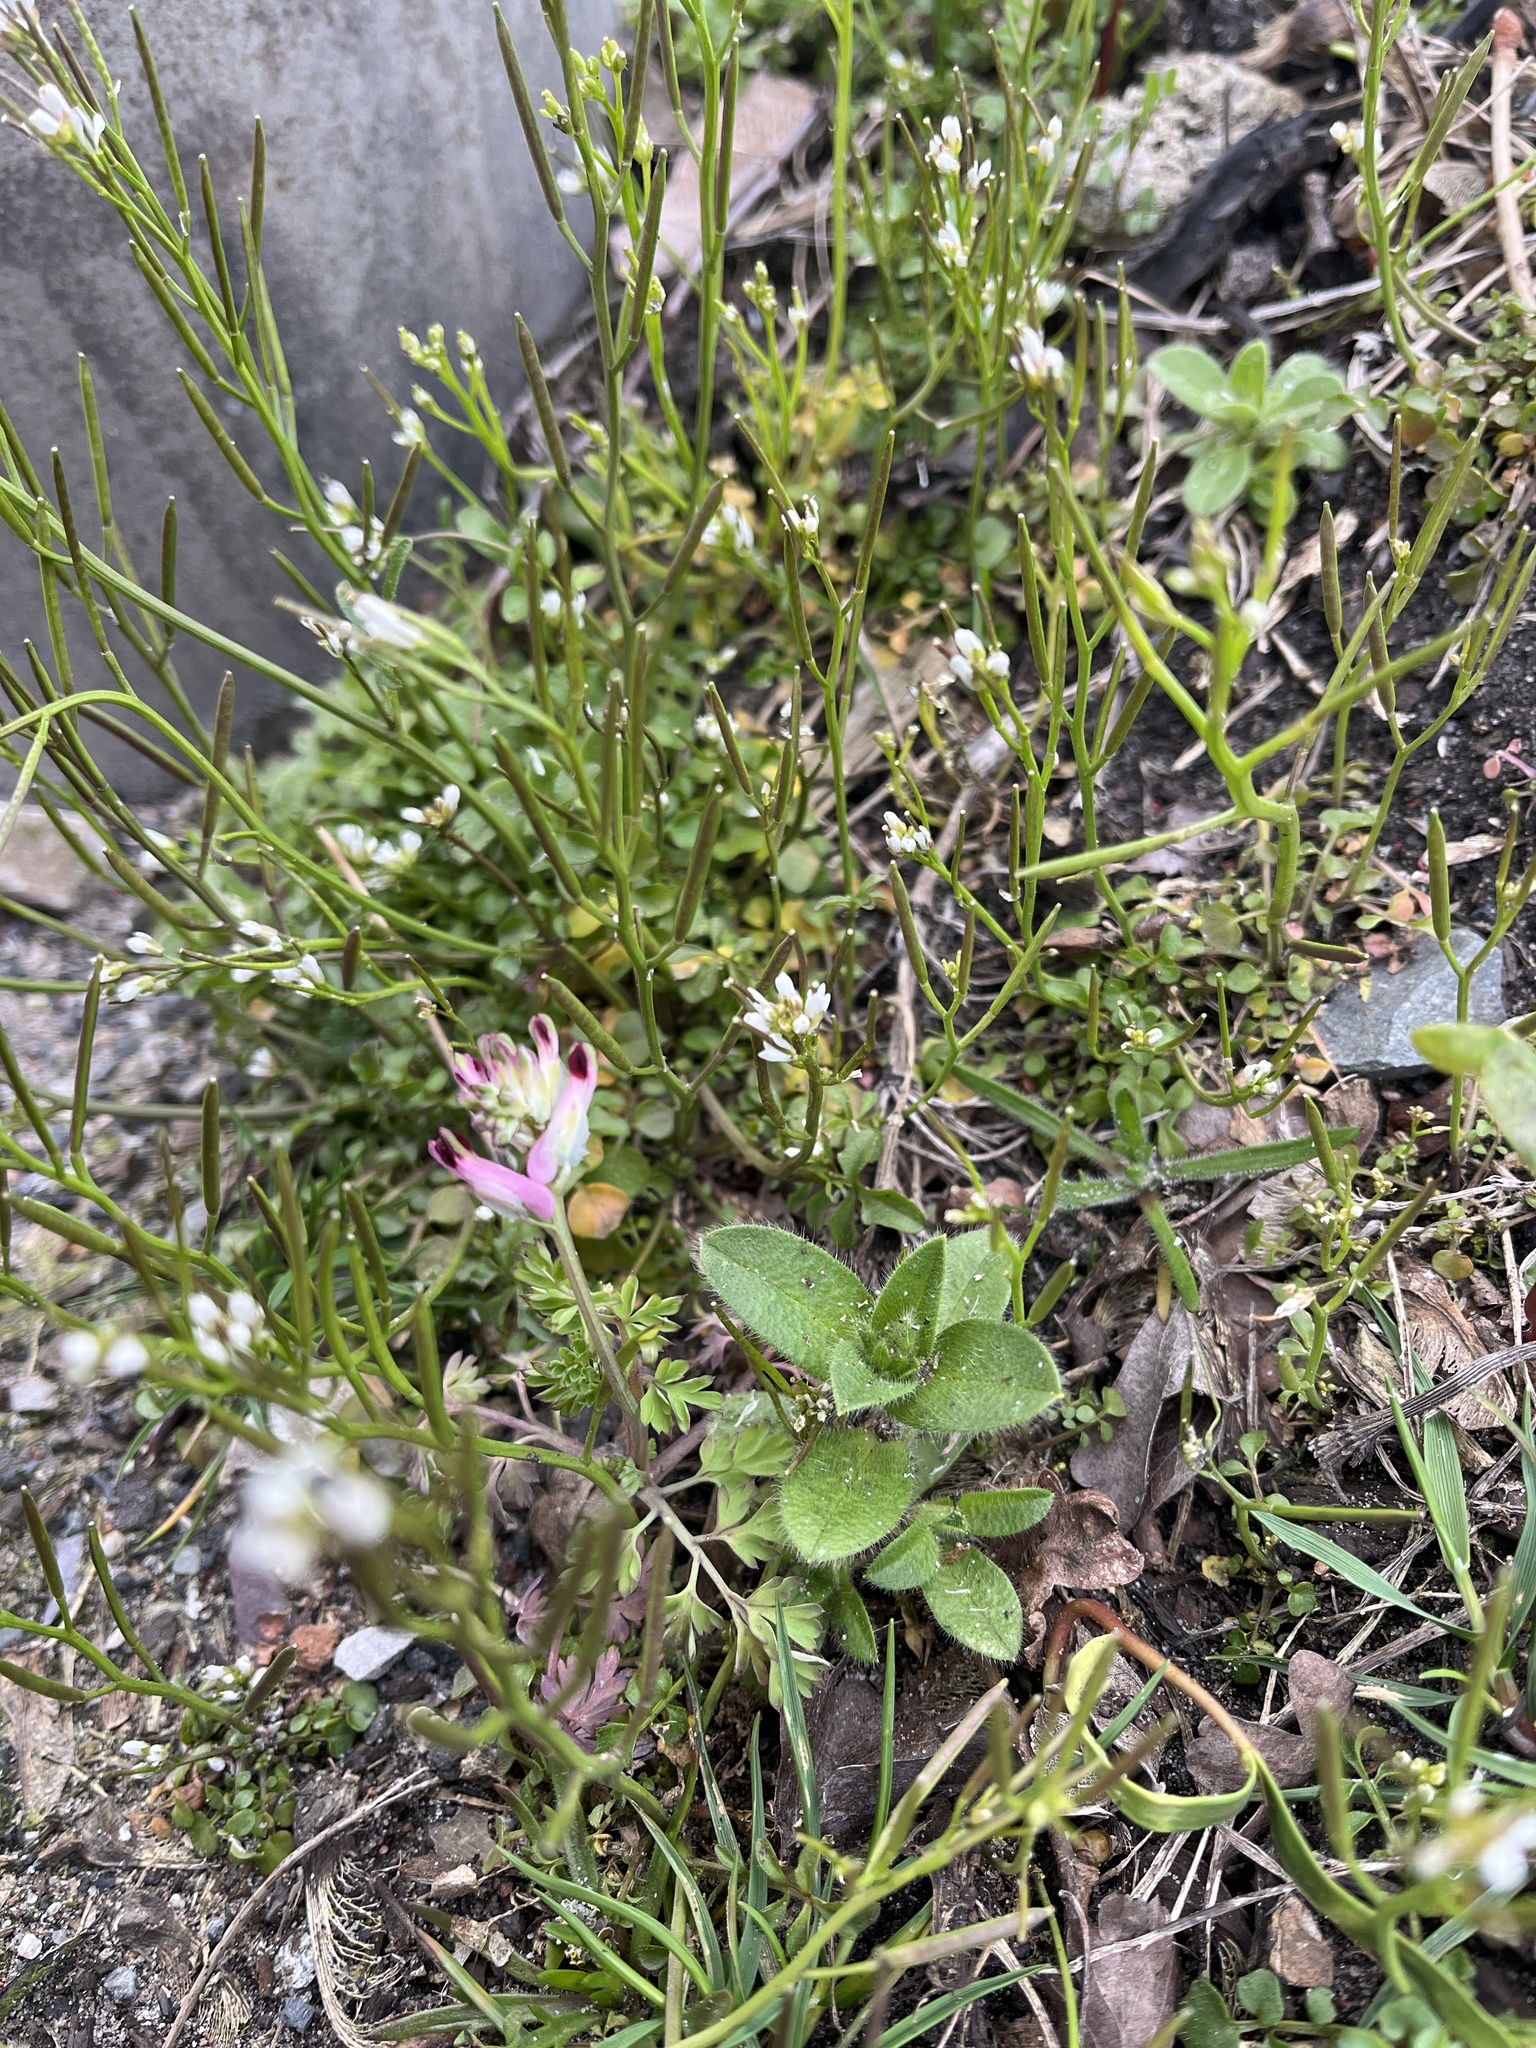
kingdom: Plantae
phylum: Tracheophyta
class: Magnoliopsida
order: Ranunculales
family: Papaveraceae
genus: Fumaria
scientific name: Fumaria capreolata
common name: White ramping-fumitory
